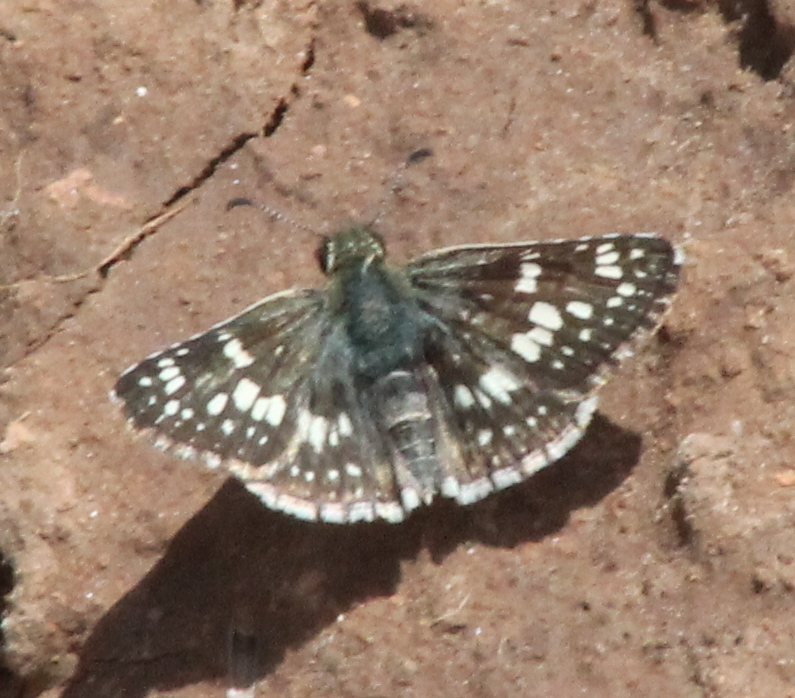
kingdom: Animalia
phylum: Arthropoda
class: Insecta
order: Lepidoptera
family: Hesperiidae
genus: Burnsius
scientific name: Burnsius communis
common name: Common checkered-skipper
